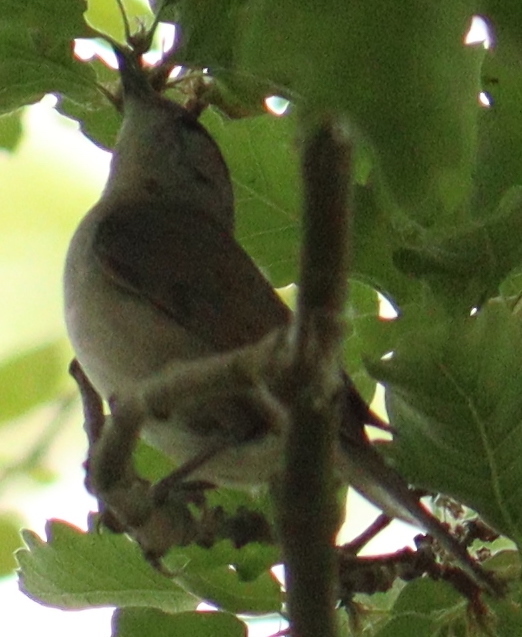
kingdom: Animalia
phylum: Chordata
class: Aves
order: Passeriformes
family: Sylviidae
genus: Sylvia
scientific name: Sylvia atricapilla
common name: Eurasian blackcap
